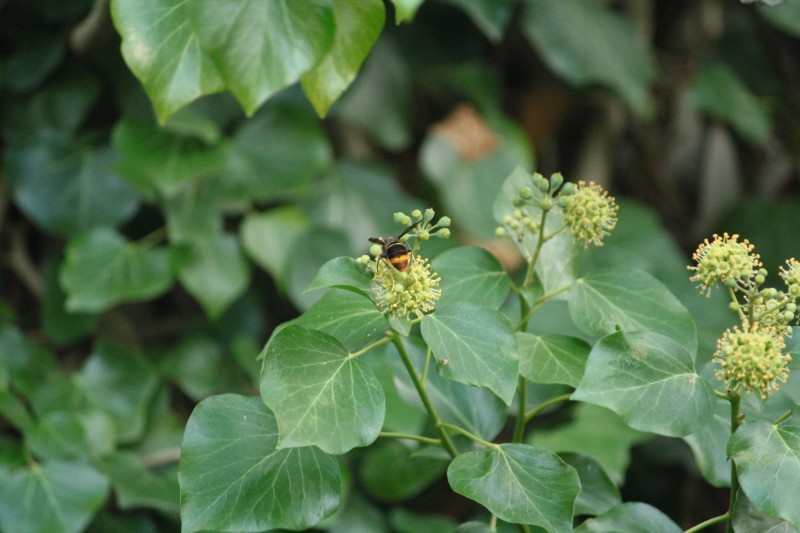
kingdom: Animalia
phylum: Arthropoda
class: Insecta
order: Hymenoptera
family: Vespidae
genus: Vespa
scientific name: Vespa velutina
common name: Asian hornet
